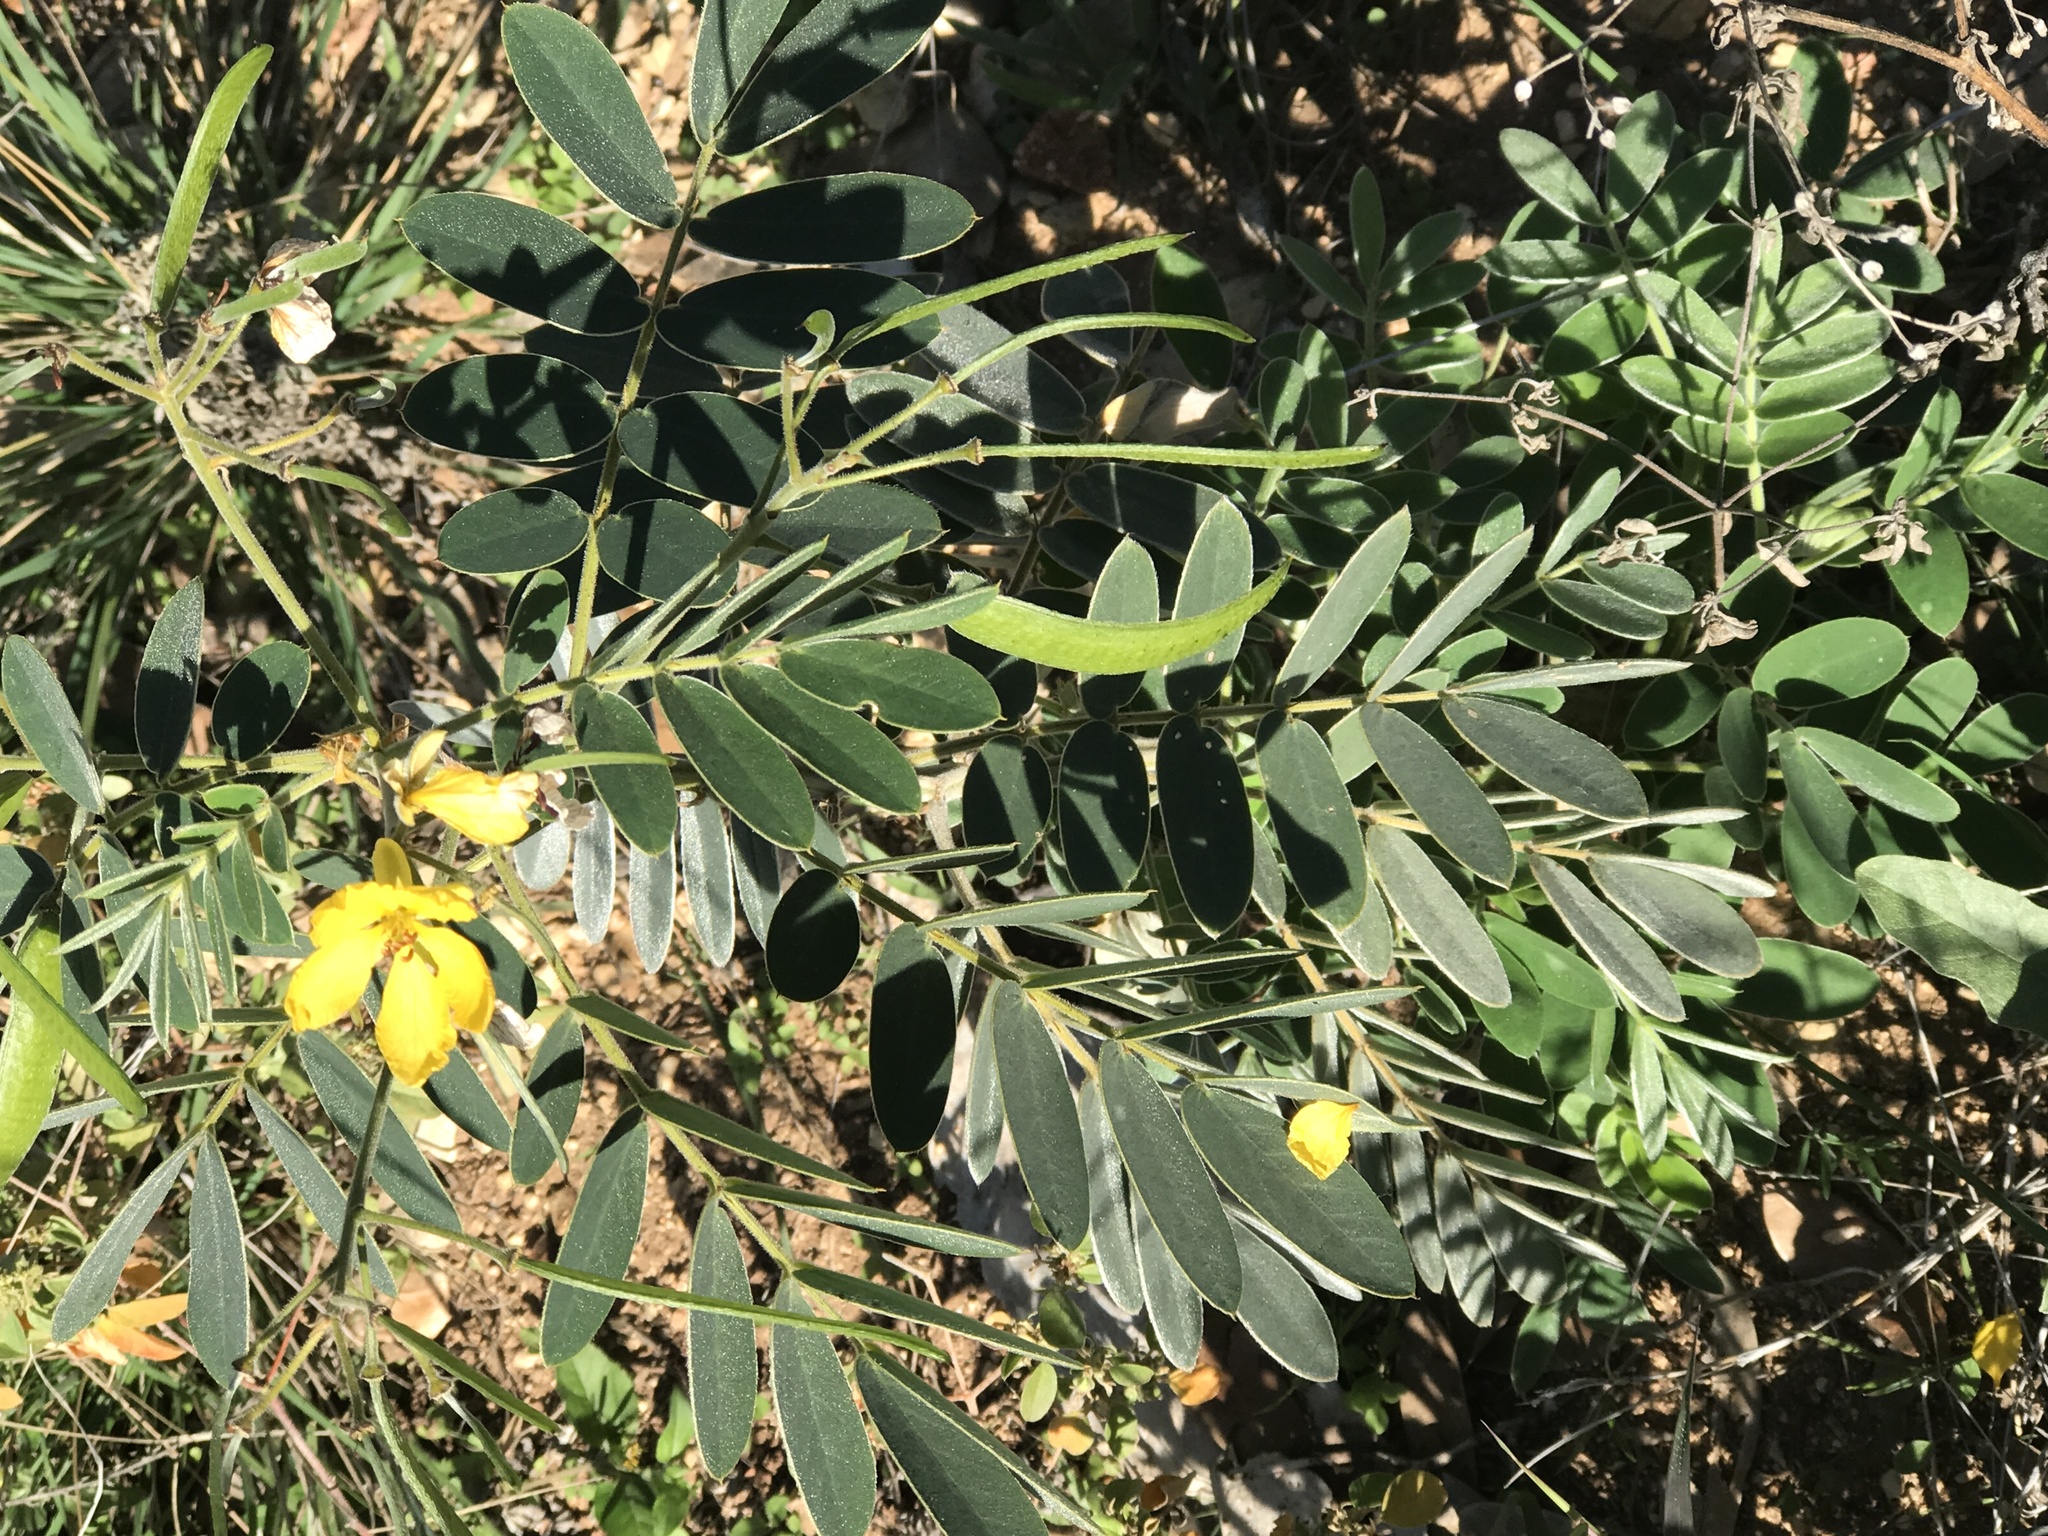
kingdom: Plantae
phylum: Tracheophyta
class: Magnoliopsida
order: Fabales
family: Fabaceae
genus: Senna
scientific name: Senna lindheimeriana
